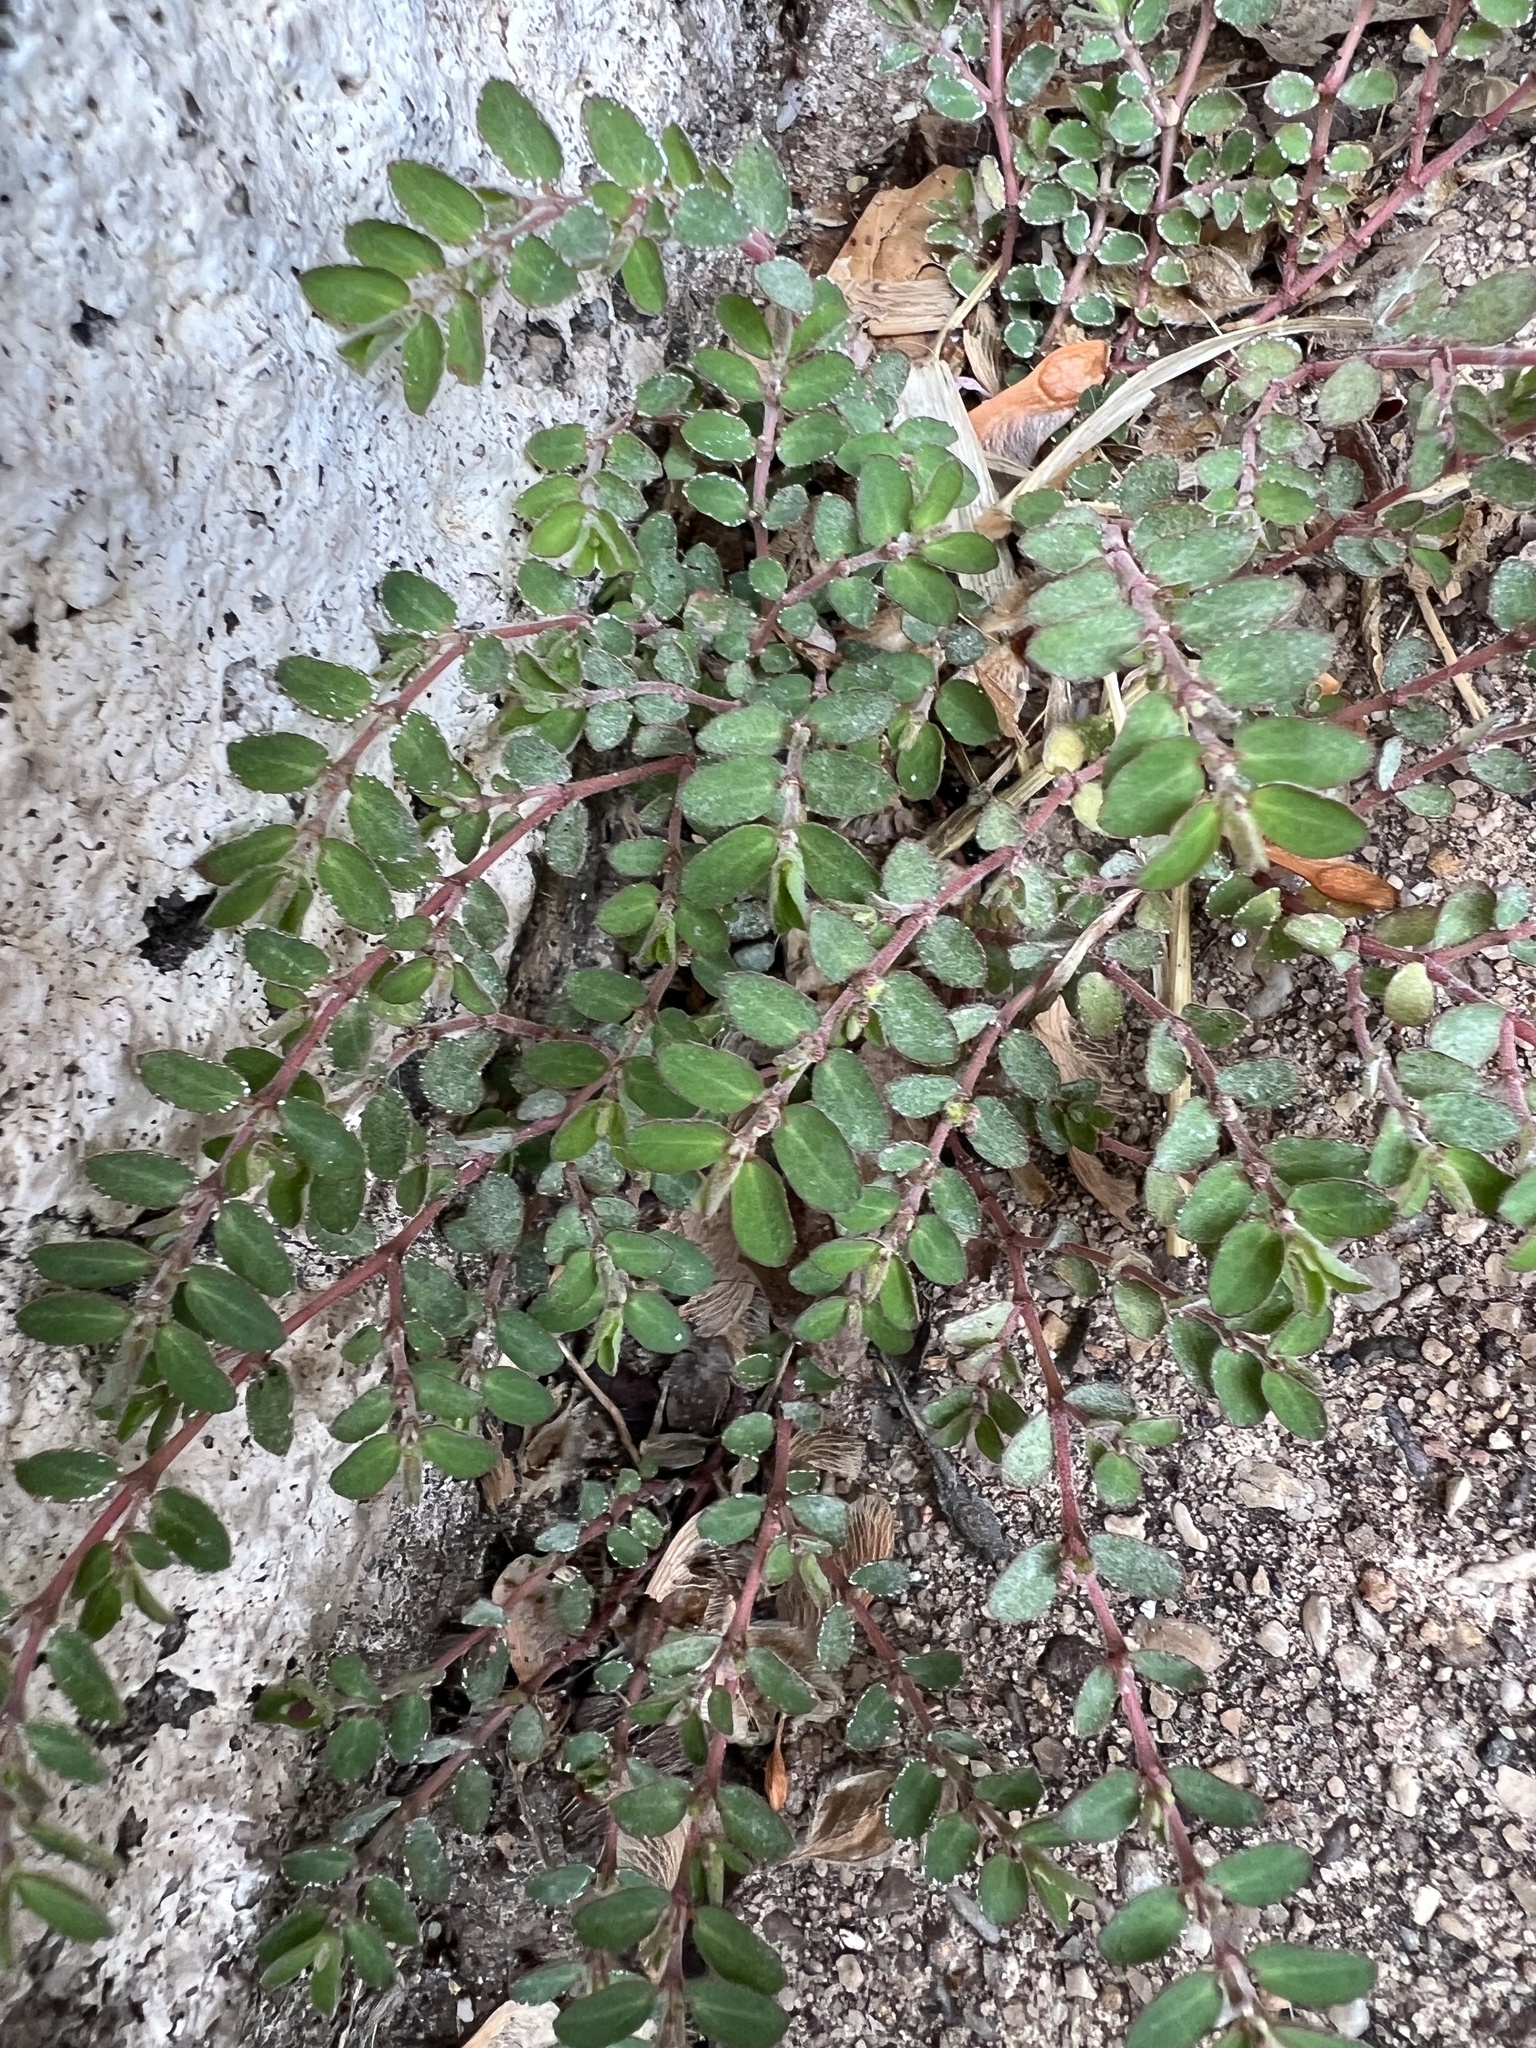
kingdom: Plantae
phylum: Tracheophyta
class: Magnoliopsida
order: Malpighiales
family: Euphorbiaceae
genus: Euphorbia
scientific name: Euphorbia prostrata
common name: Prostrate sandmat
